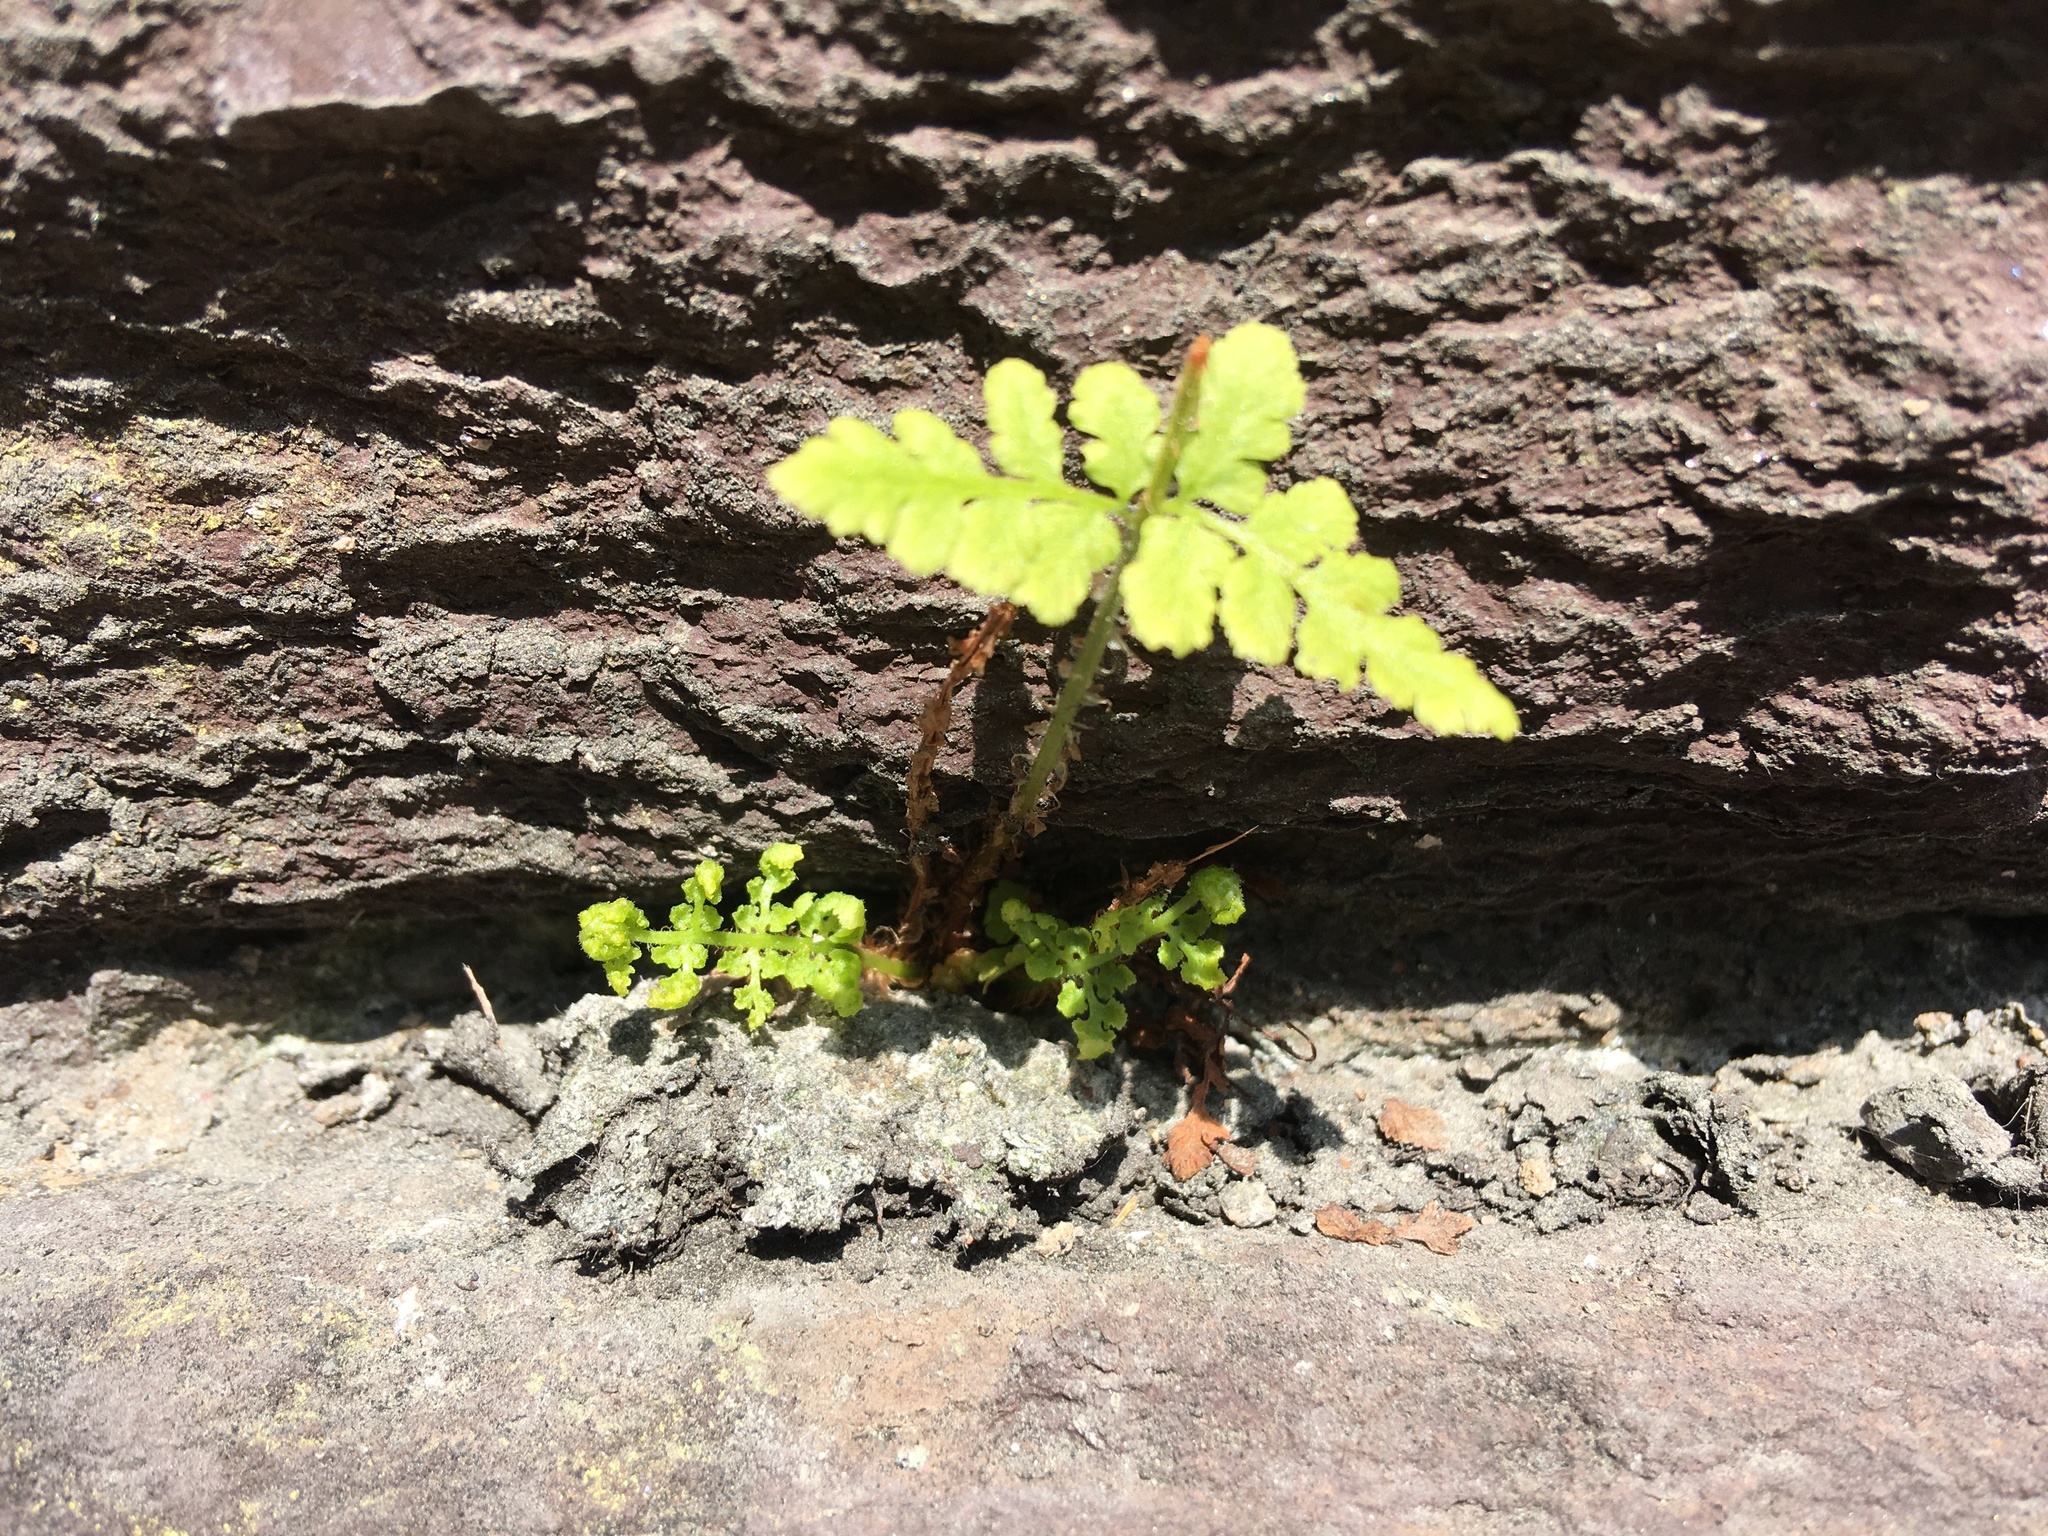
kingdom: Plantae
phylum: Tracheophyta
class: Polypodiopsida
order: Polypodiales
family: Woodsiaceae
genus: Physematium
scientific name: Physematium obtusum
